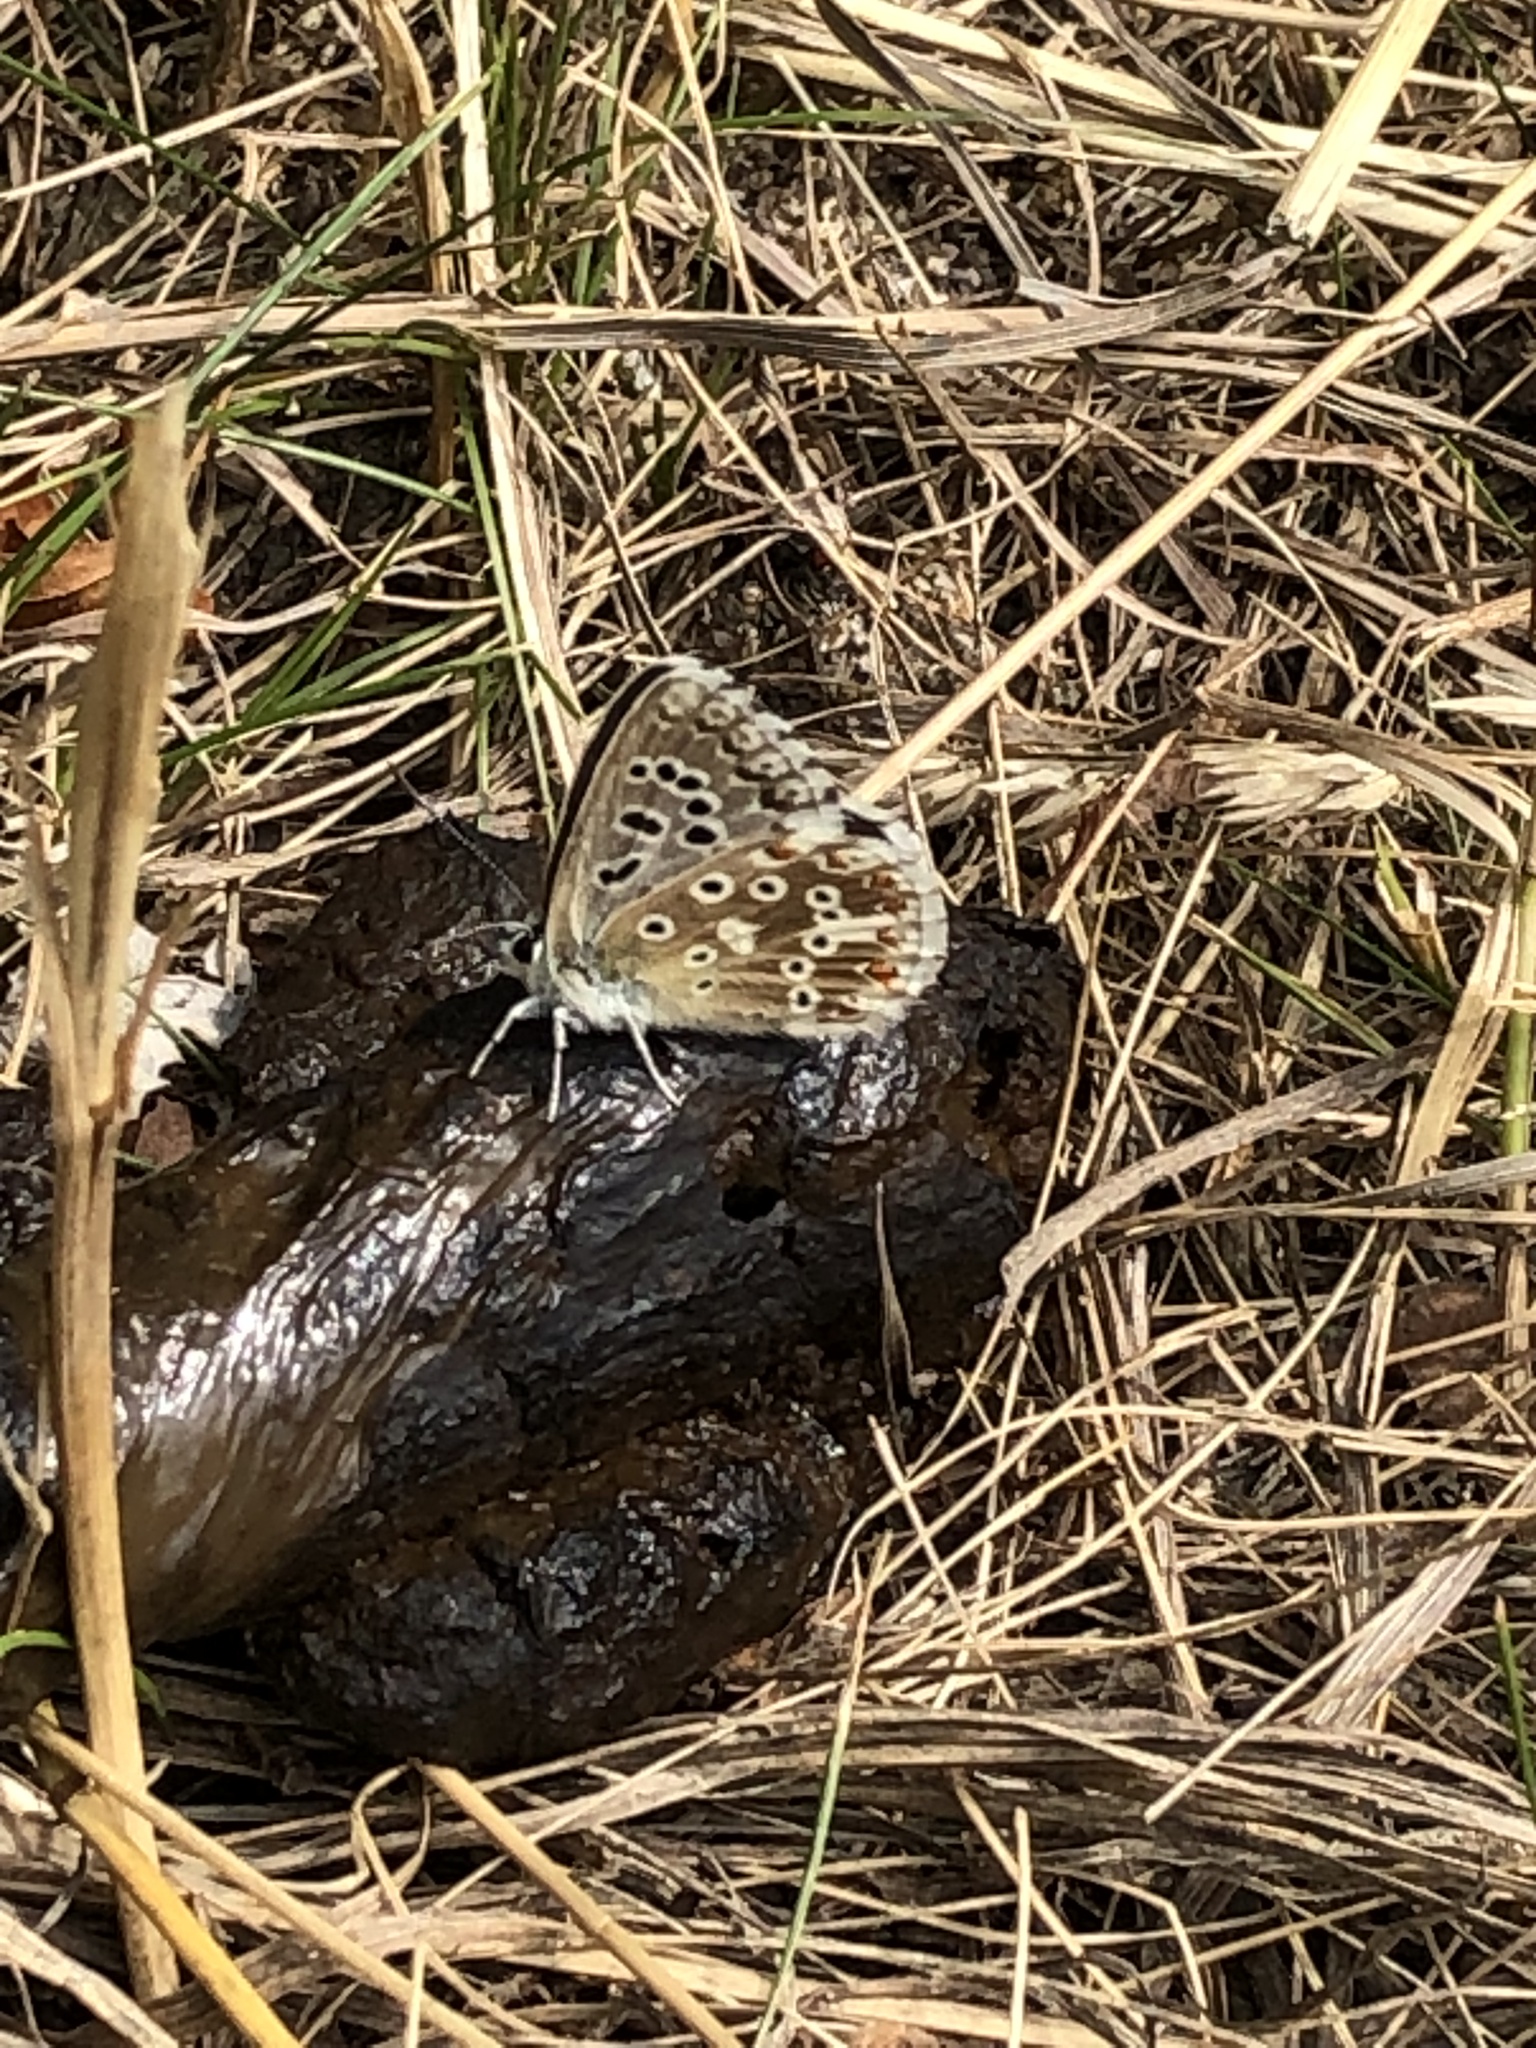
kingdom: Animalia
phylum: Arthropoda
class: Insecta
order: Lepidoptera
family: Lycaenidae
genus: Lysandra
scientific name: Lysandra coridon
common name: Chalkhill blue
